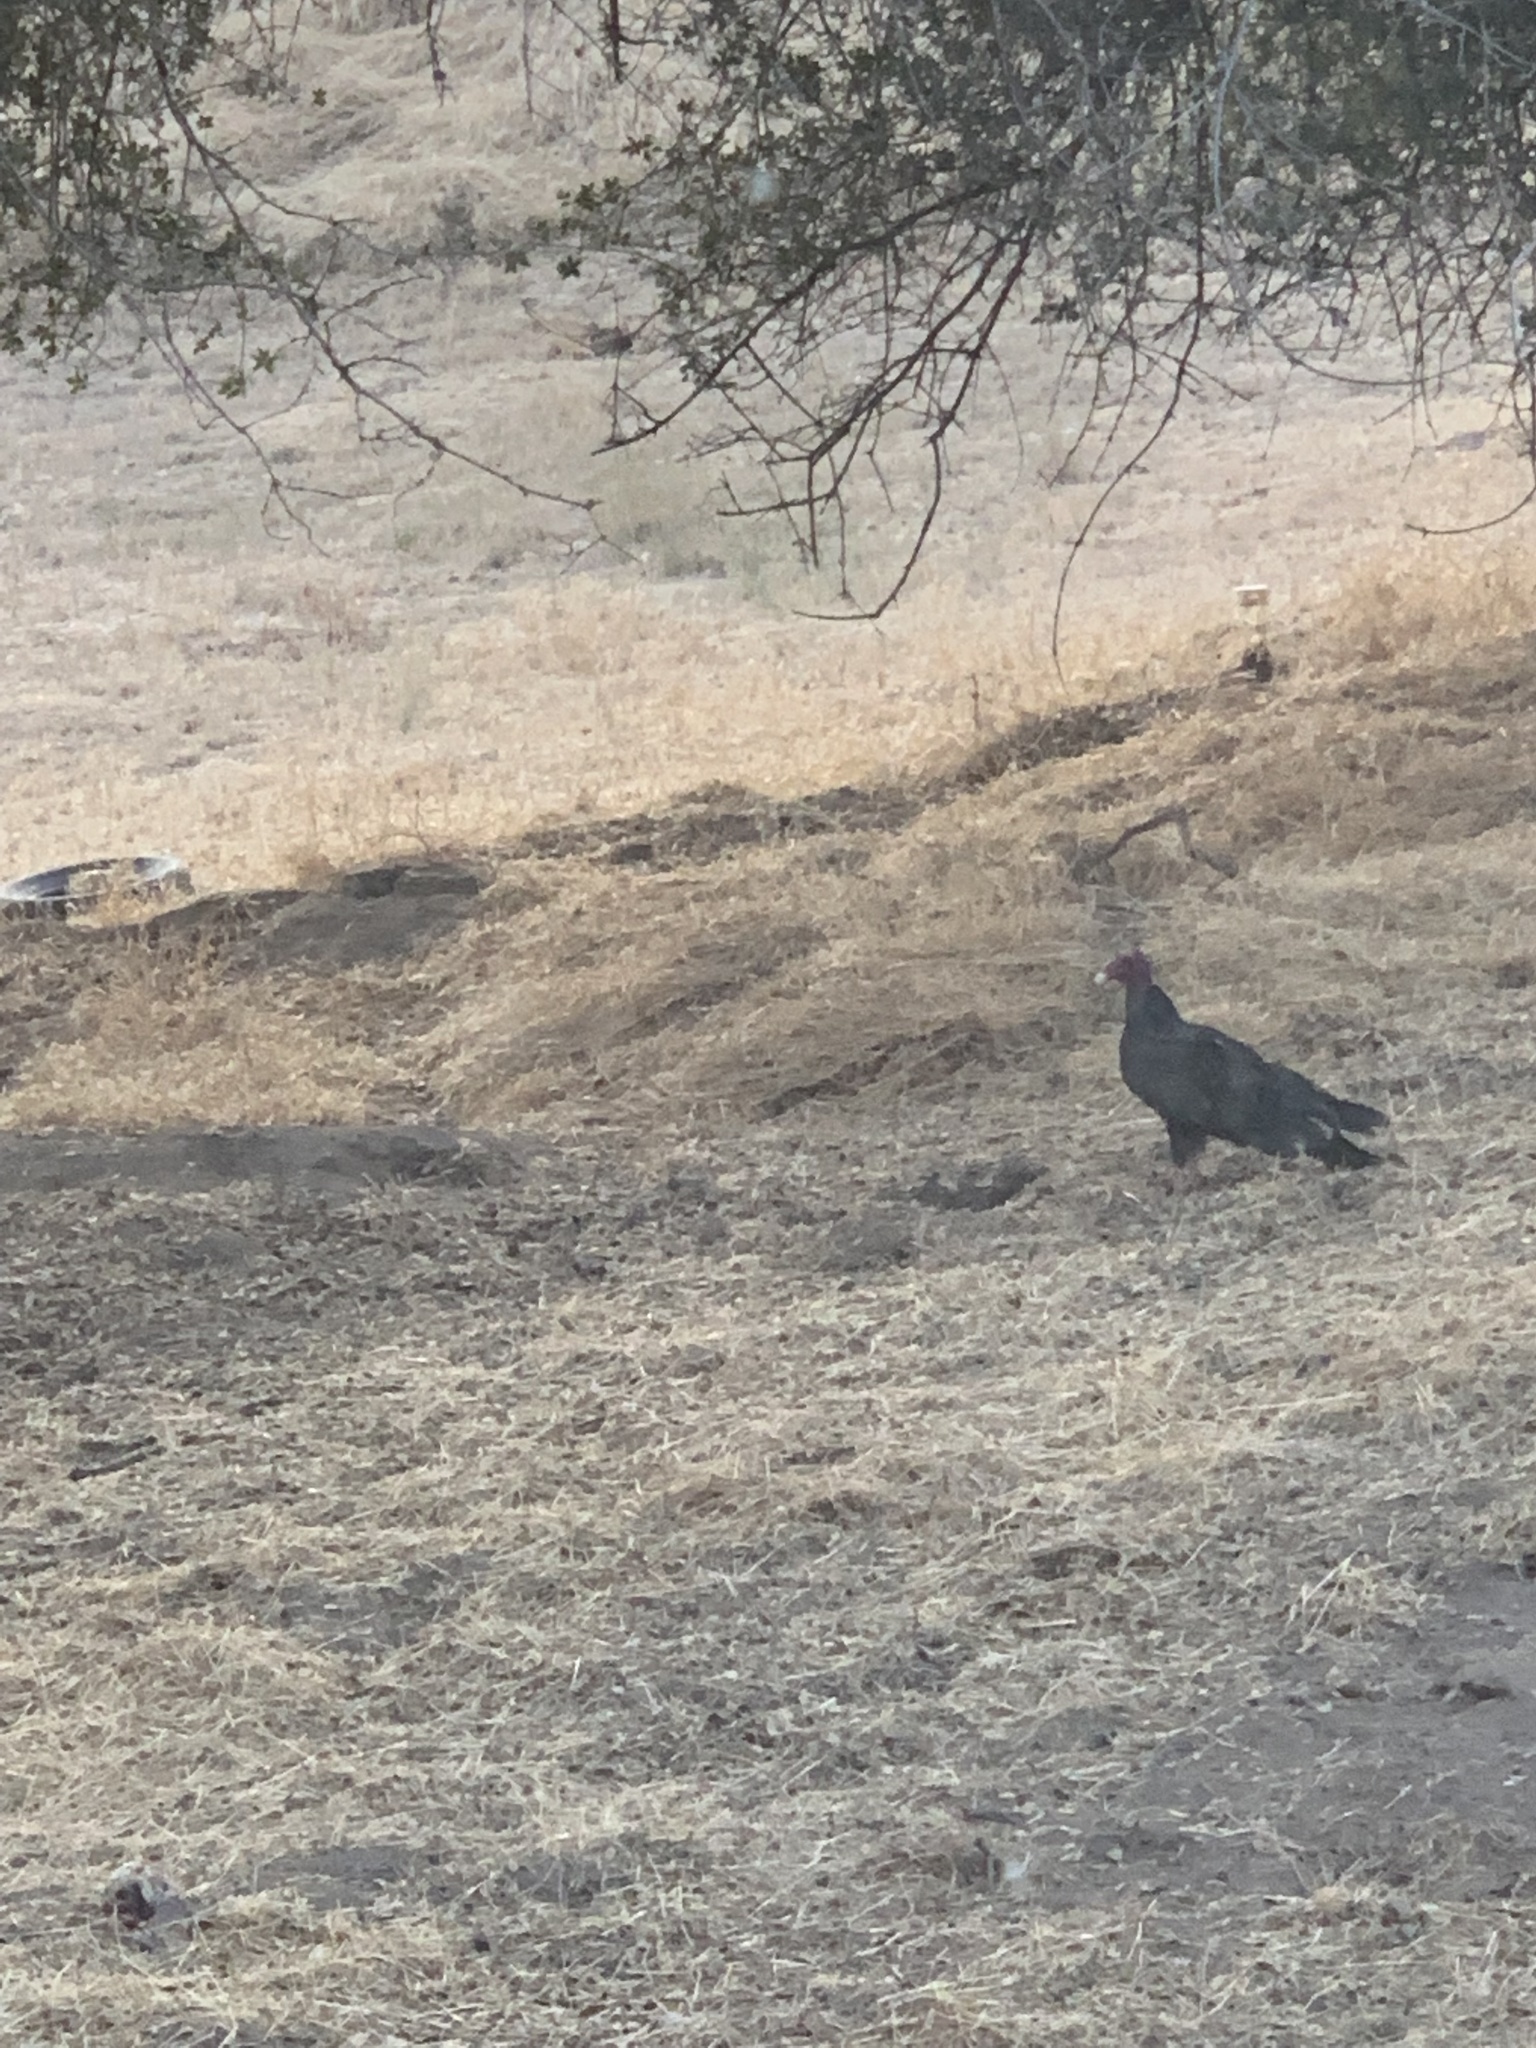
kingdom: Animalia
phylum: Chordata
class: Aves
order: Accipitriformes
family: Cathartidae
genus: Cathartes
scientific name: Cathartes aura
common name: Turkey vulture
